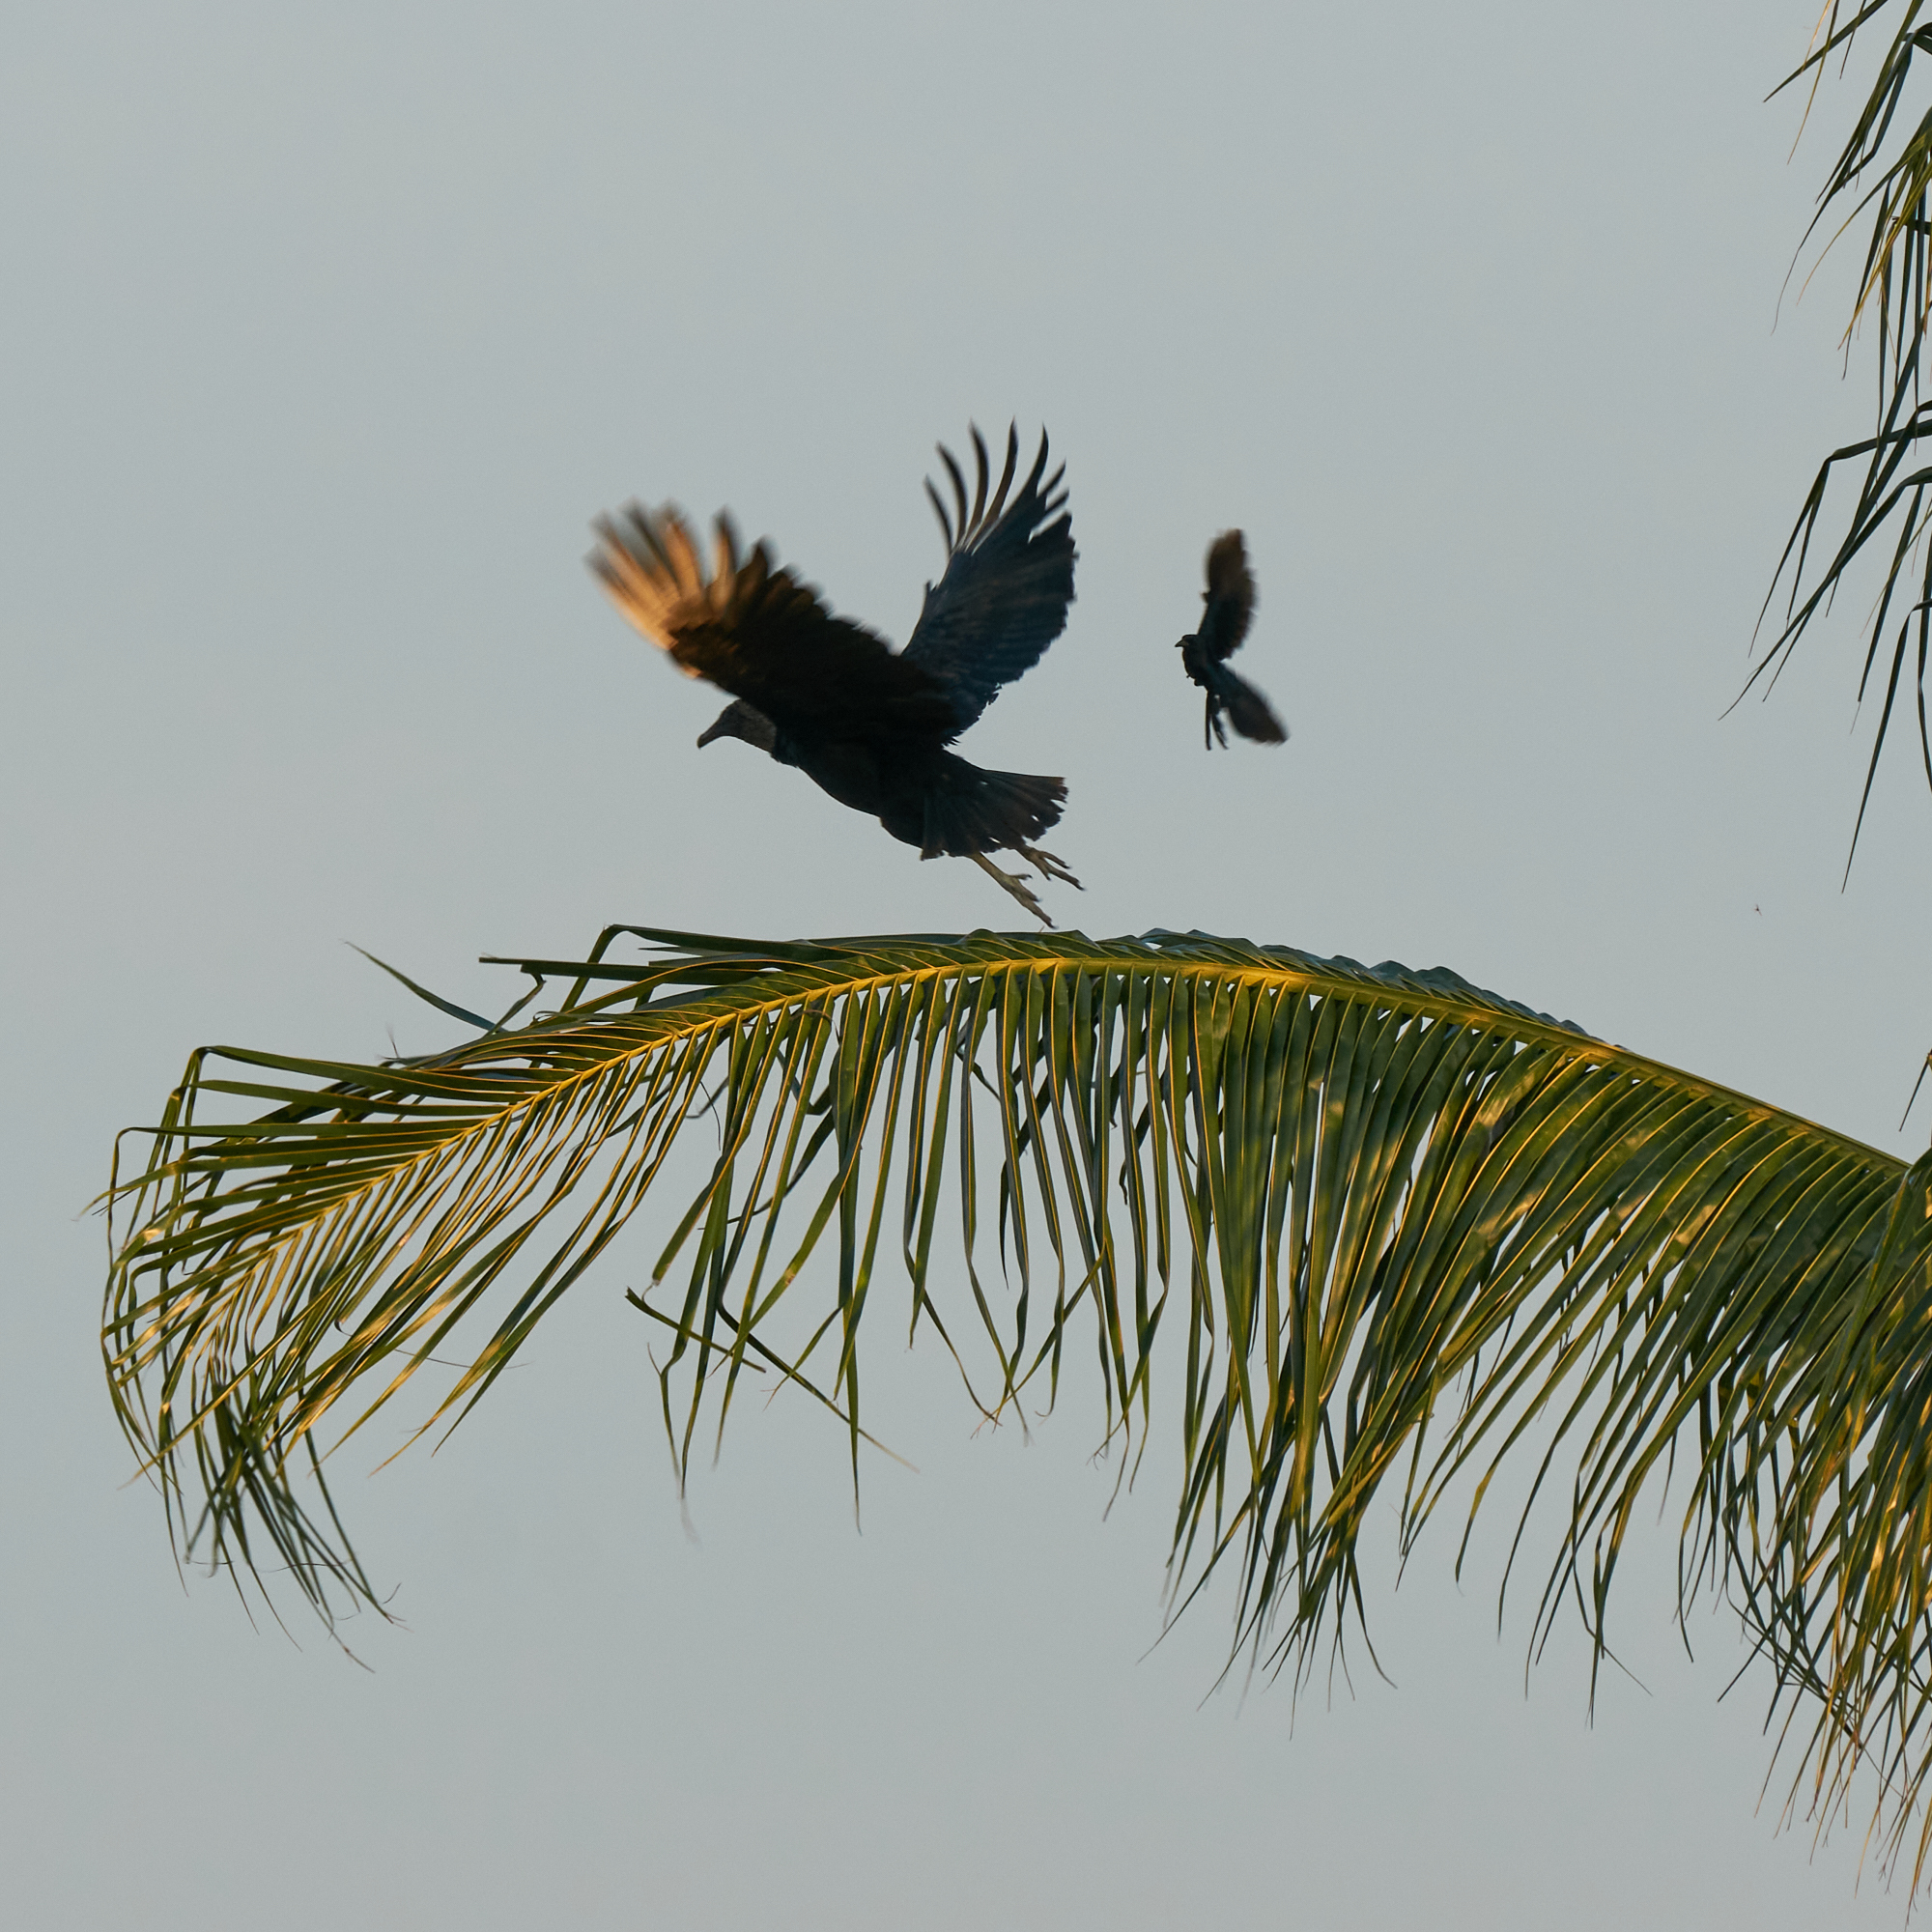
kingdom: Animalia
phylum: Chordata
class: Aves
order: Accipitriformes
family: Cathartidae
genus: Coragyps
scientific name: Coragyps atratus
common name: Black vulture
